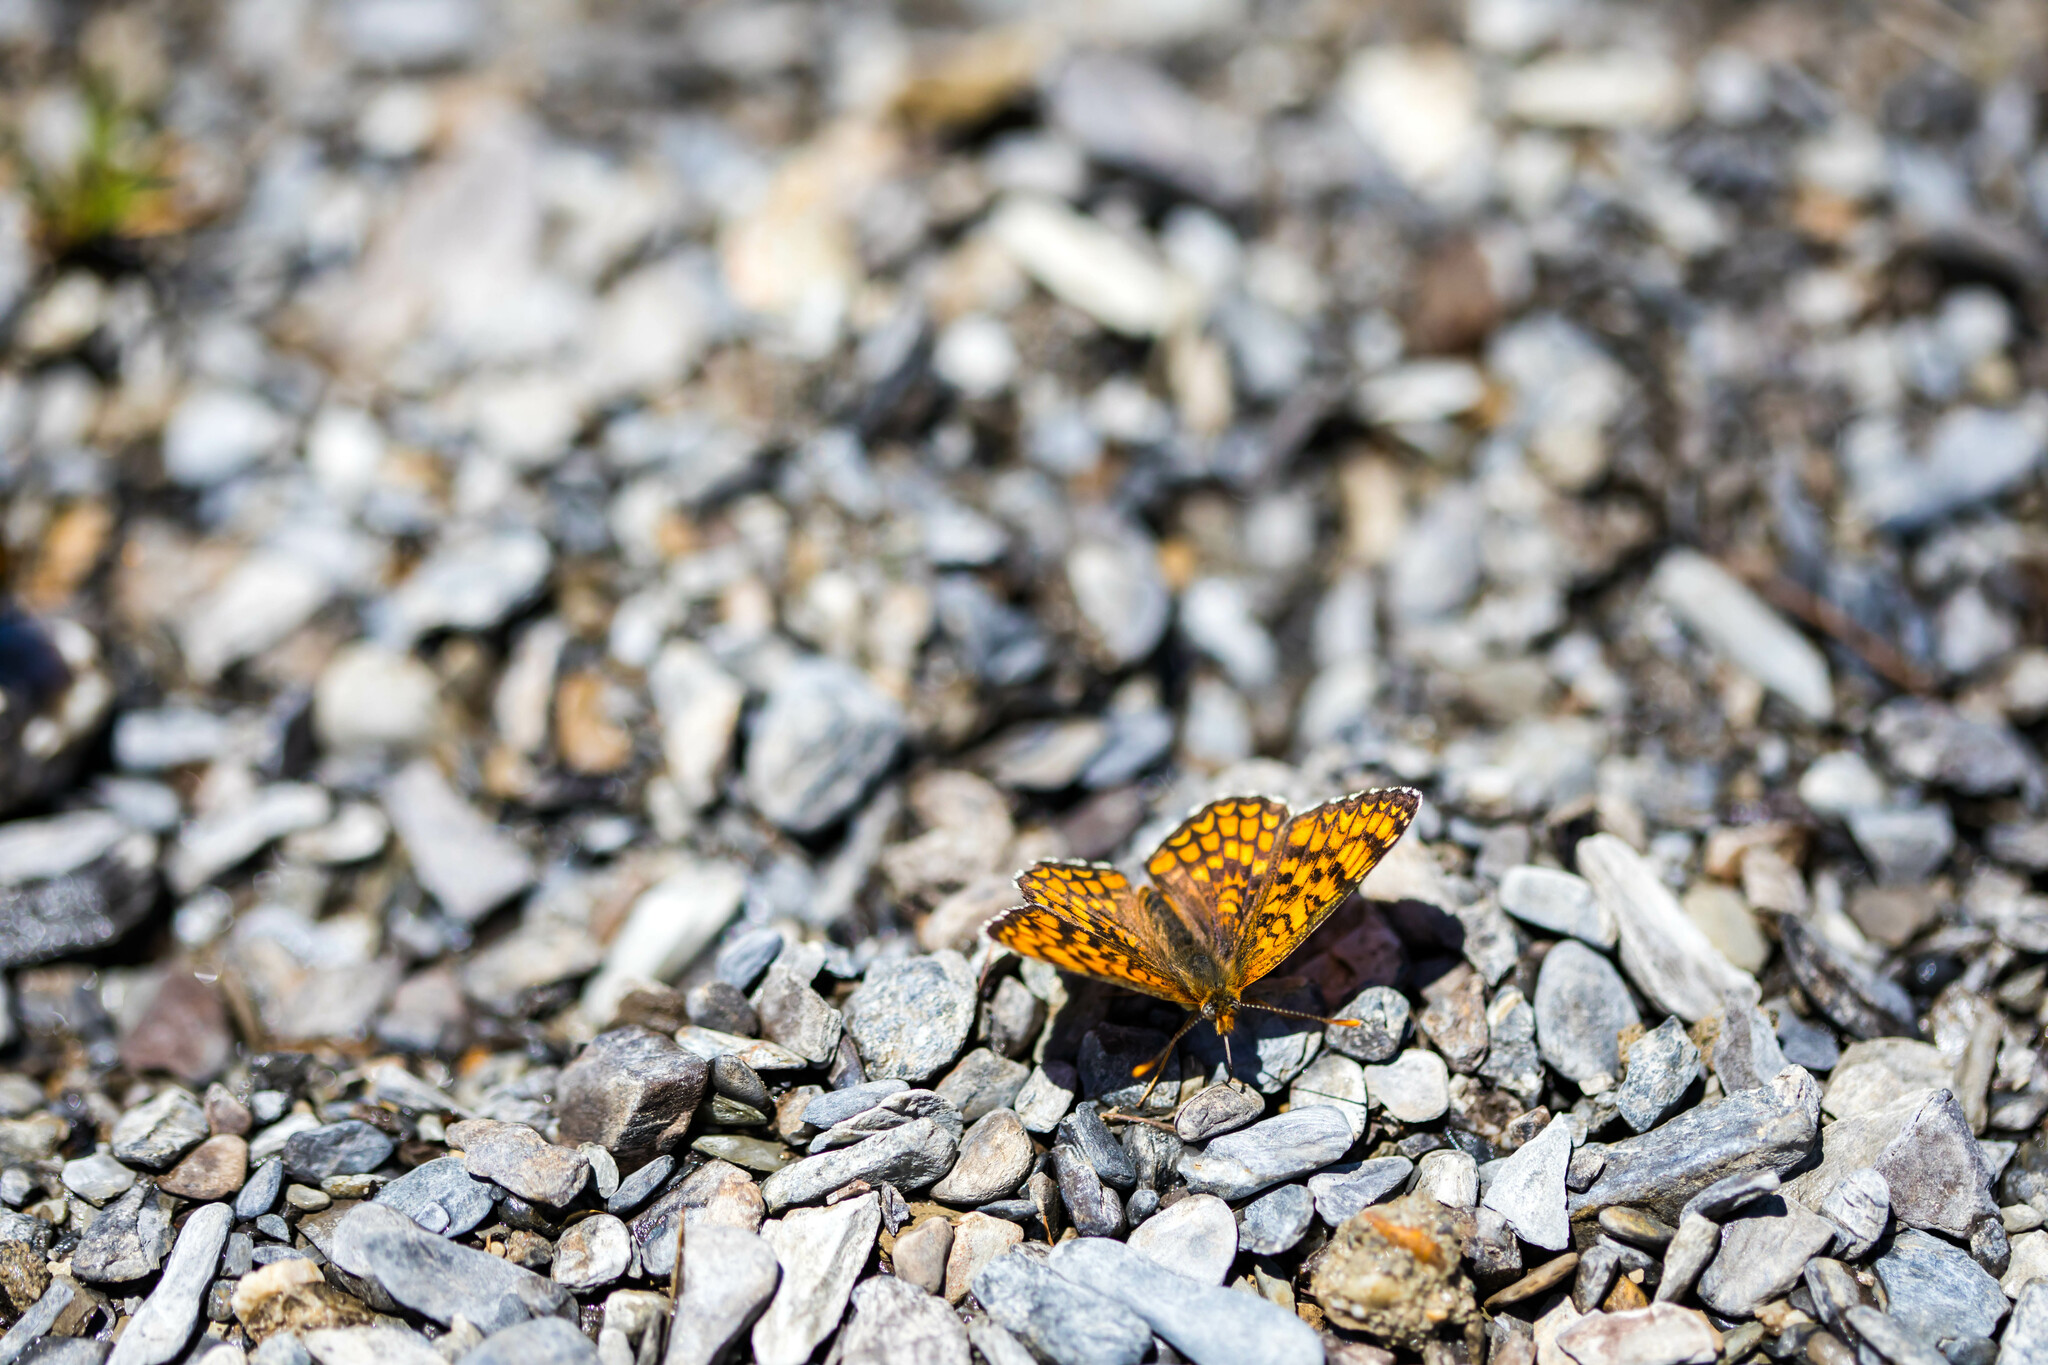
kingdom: Animalia
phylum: Arthropoda
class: Insecta
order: Lepidoptera
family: Nymphalidae
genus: Melitaea
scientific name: Melitaea phoebe
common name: Knapweed fritillary
